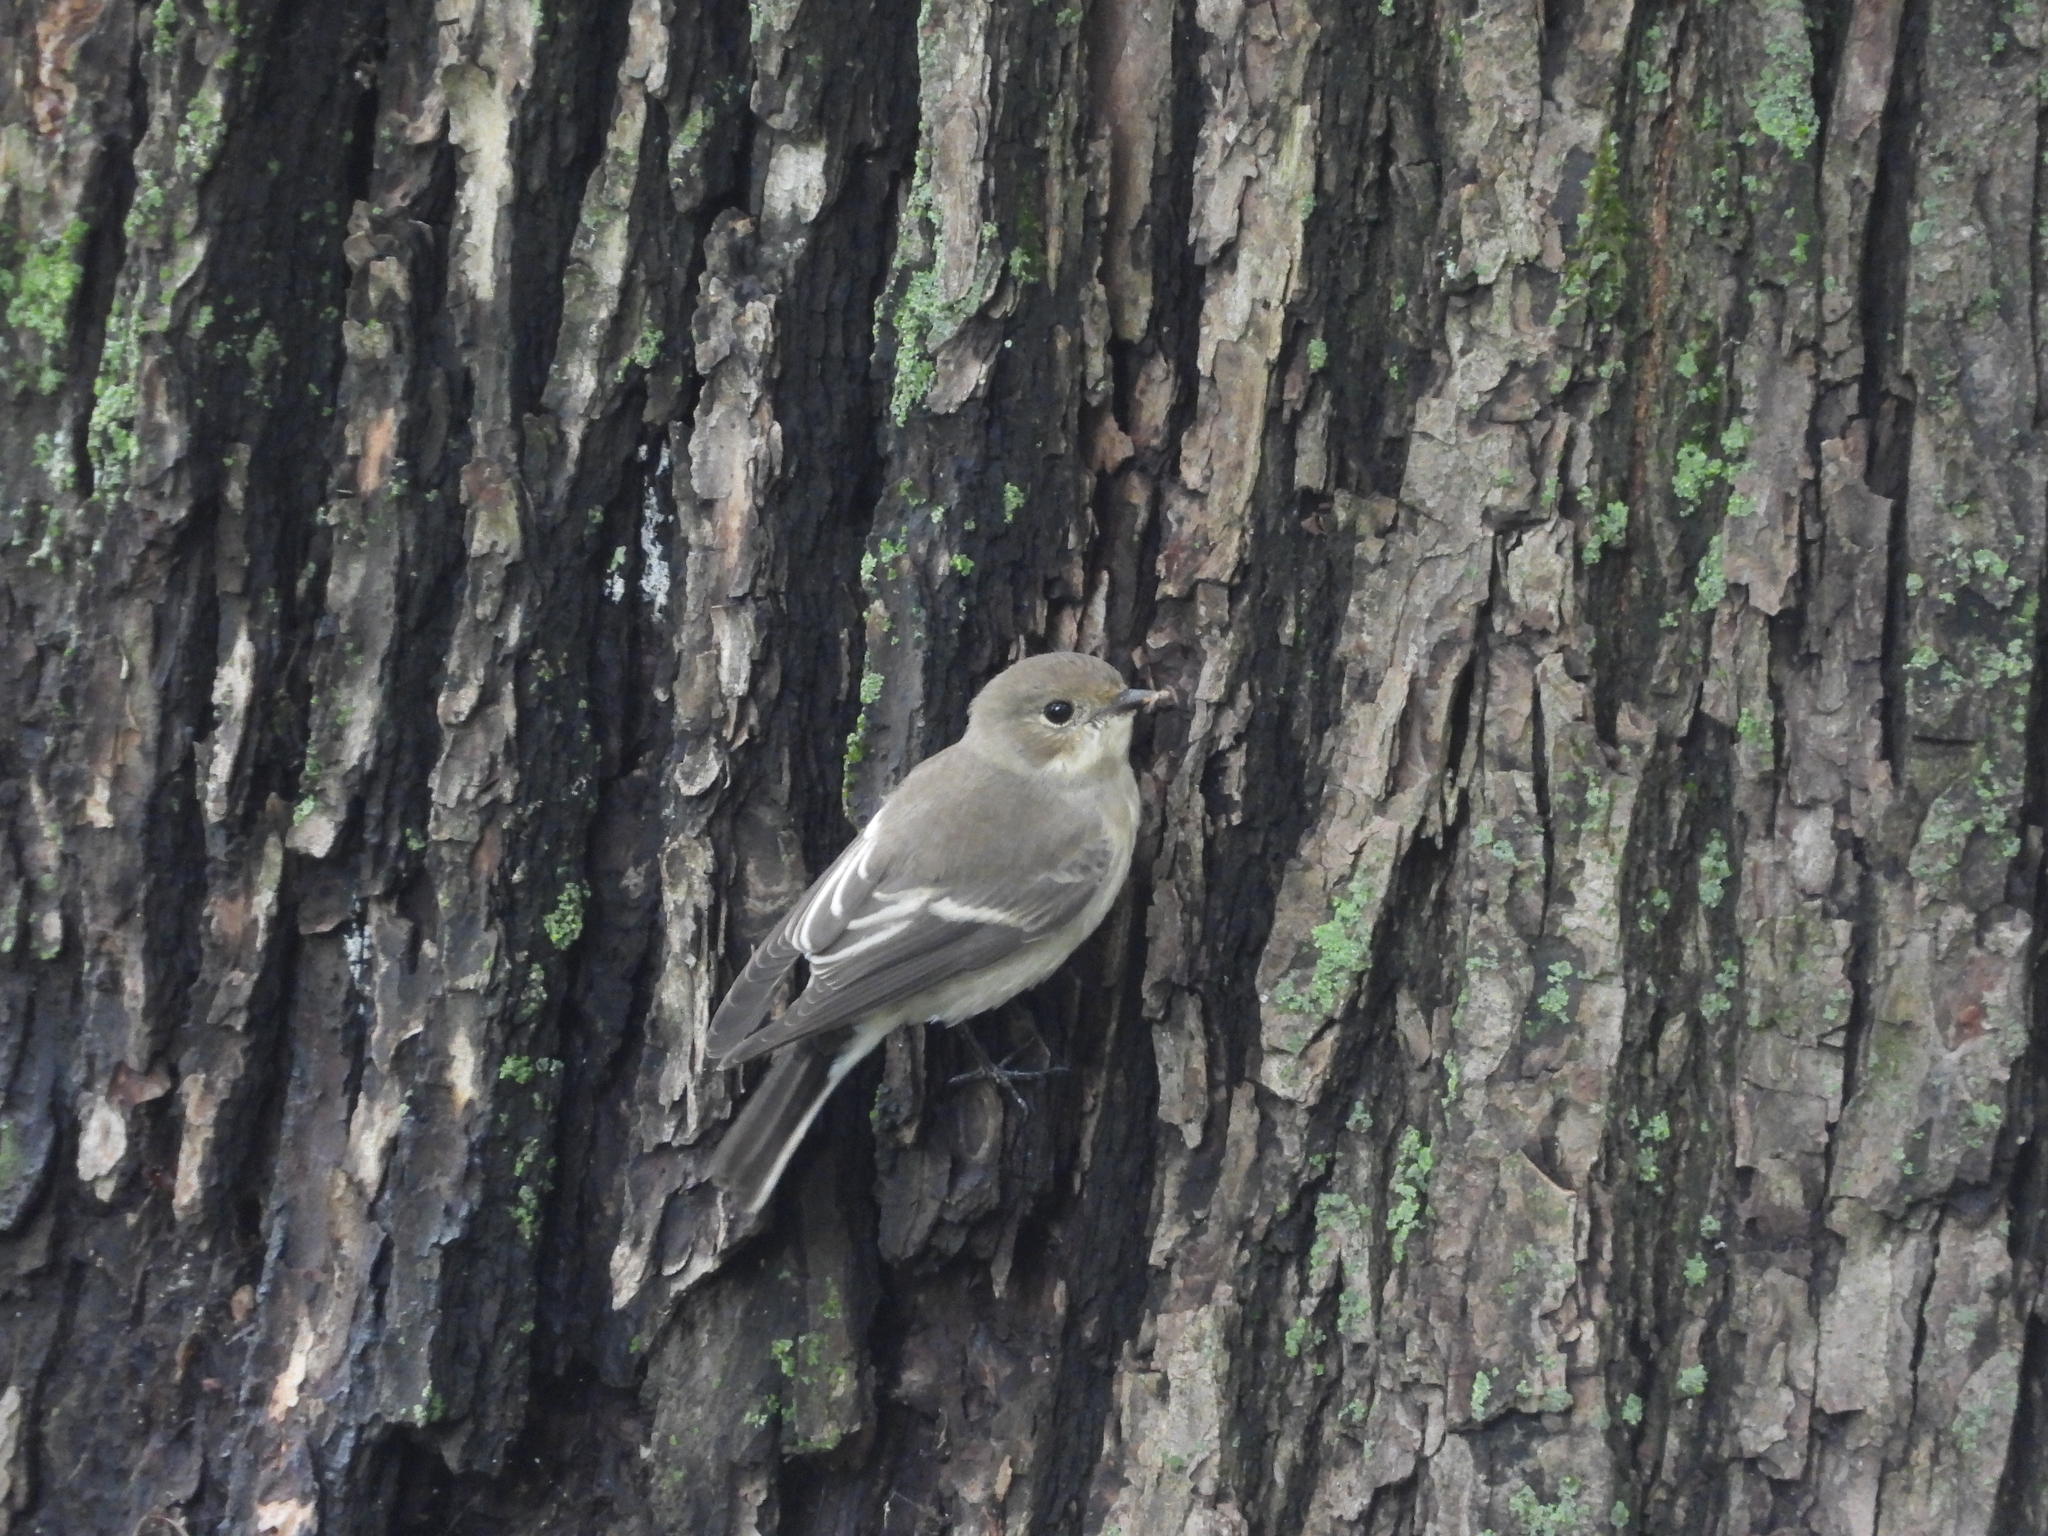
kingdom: Animalia
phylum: Chordata
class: Aves
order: Passeriformes
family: Muscicapidae
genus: Ficedula
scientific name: Ficedula hypoleuca
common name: European pied flycatcher
